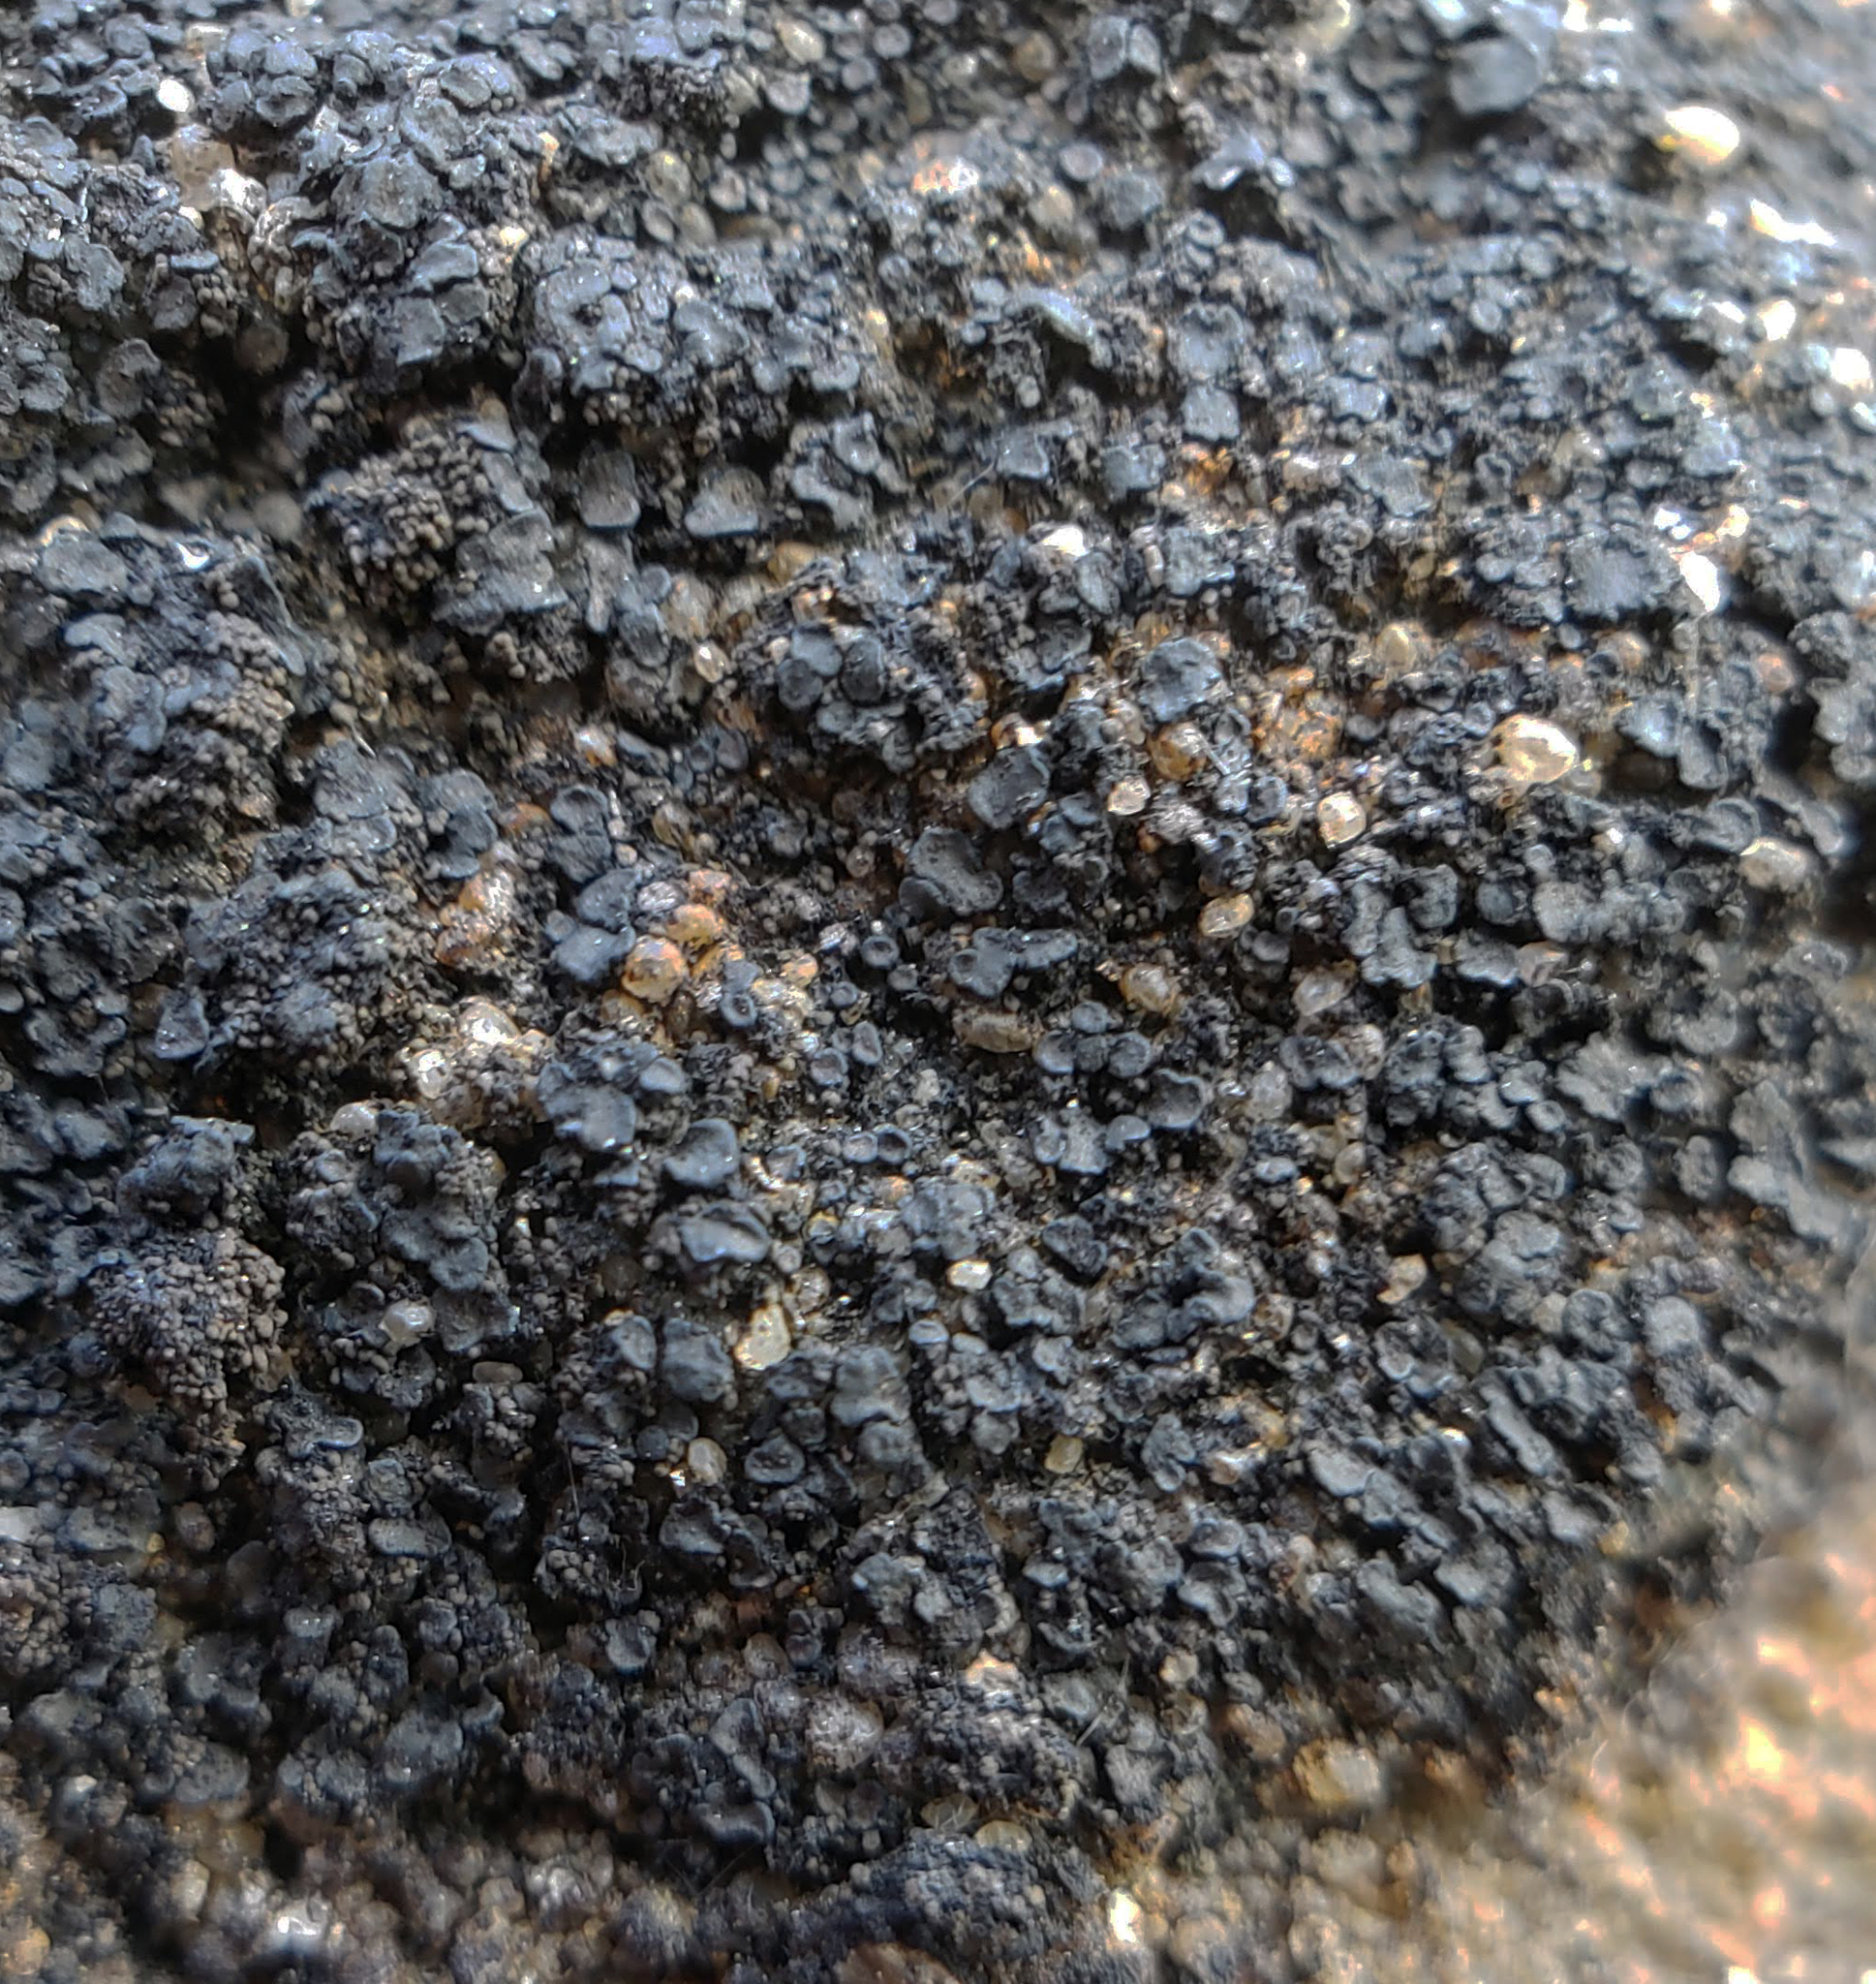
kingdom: Fungi
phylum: Ascomycota
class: Lecanoromycetes
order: Lecanorales
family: Psoraceae
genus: Psorula
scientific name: Psorula rufonigra
